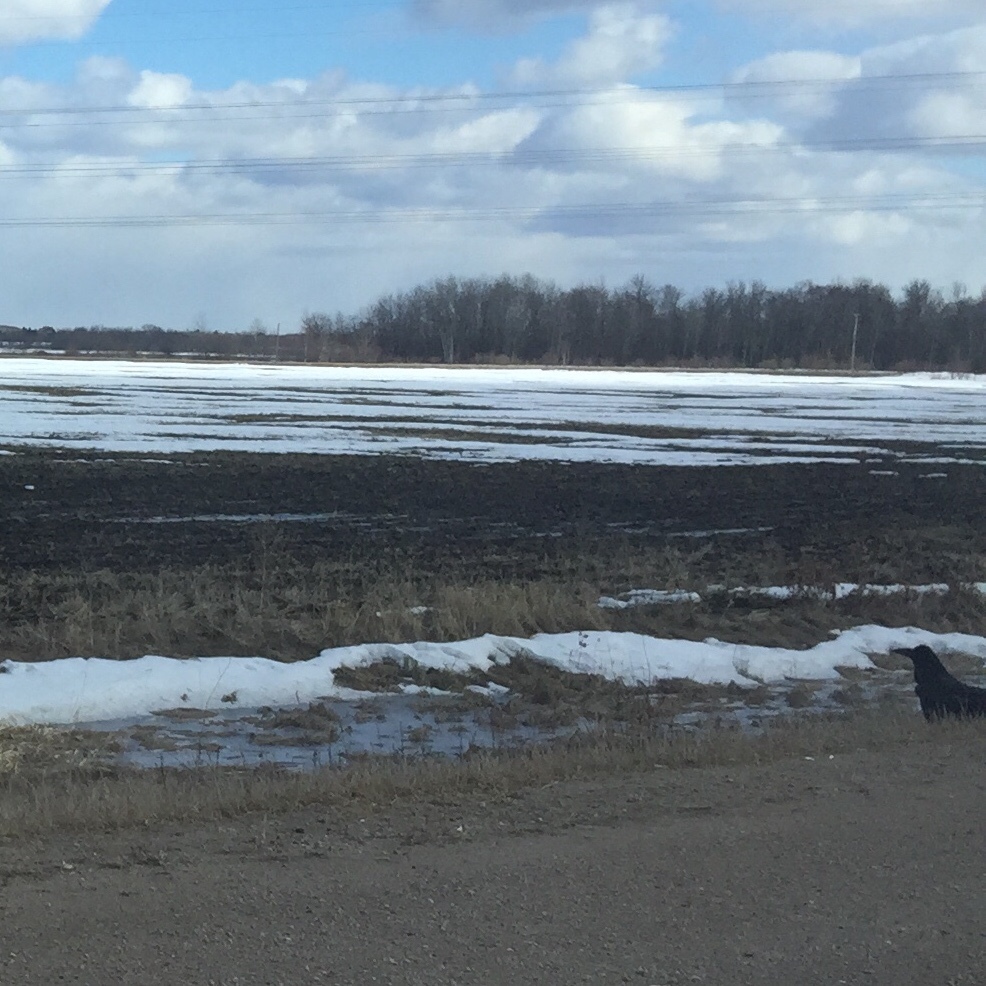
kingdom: Animalia
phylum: Chordata
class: Aves
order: Passeriformes
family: Corvidae
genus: Corvus
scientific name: Corvus corax
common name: Common raven
